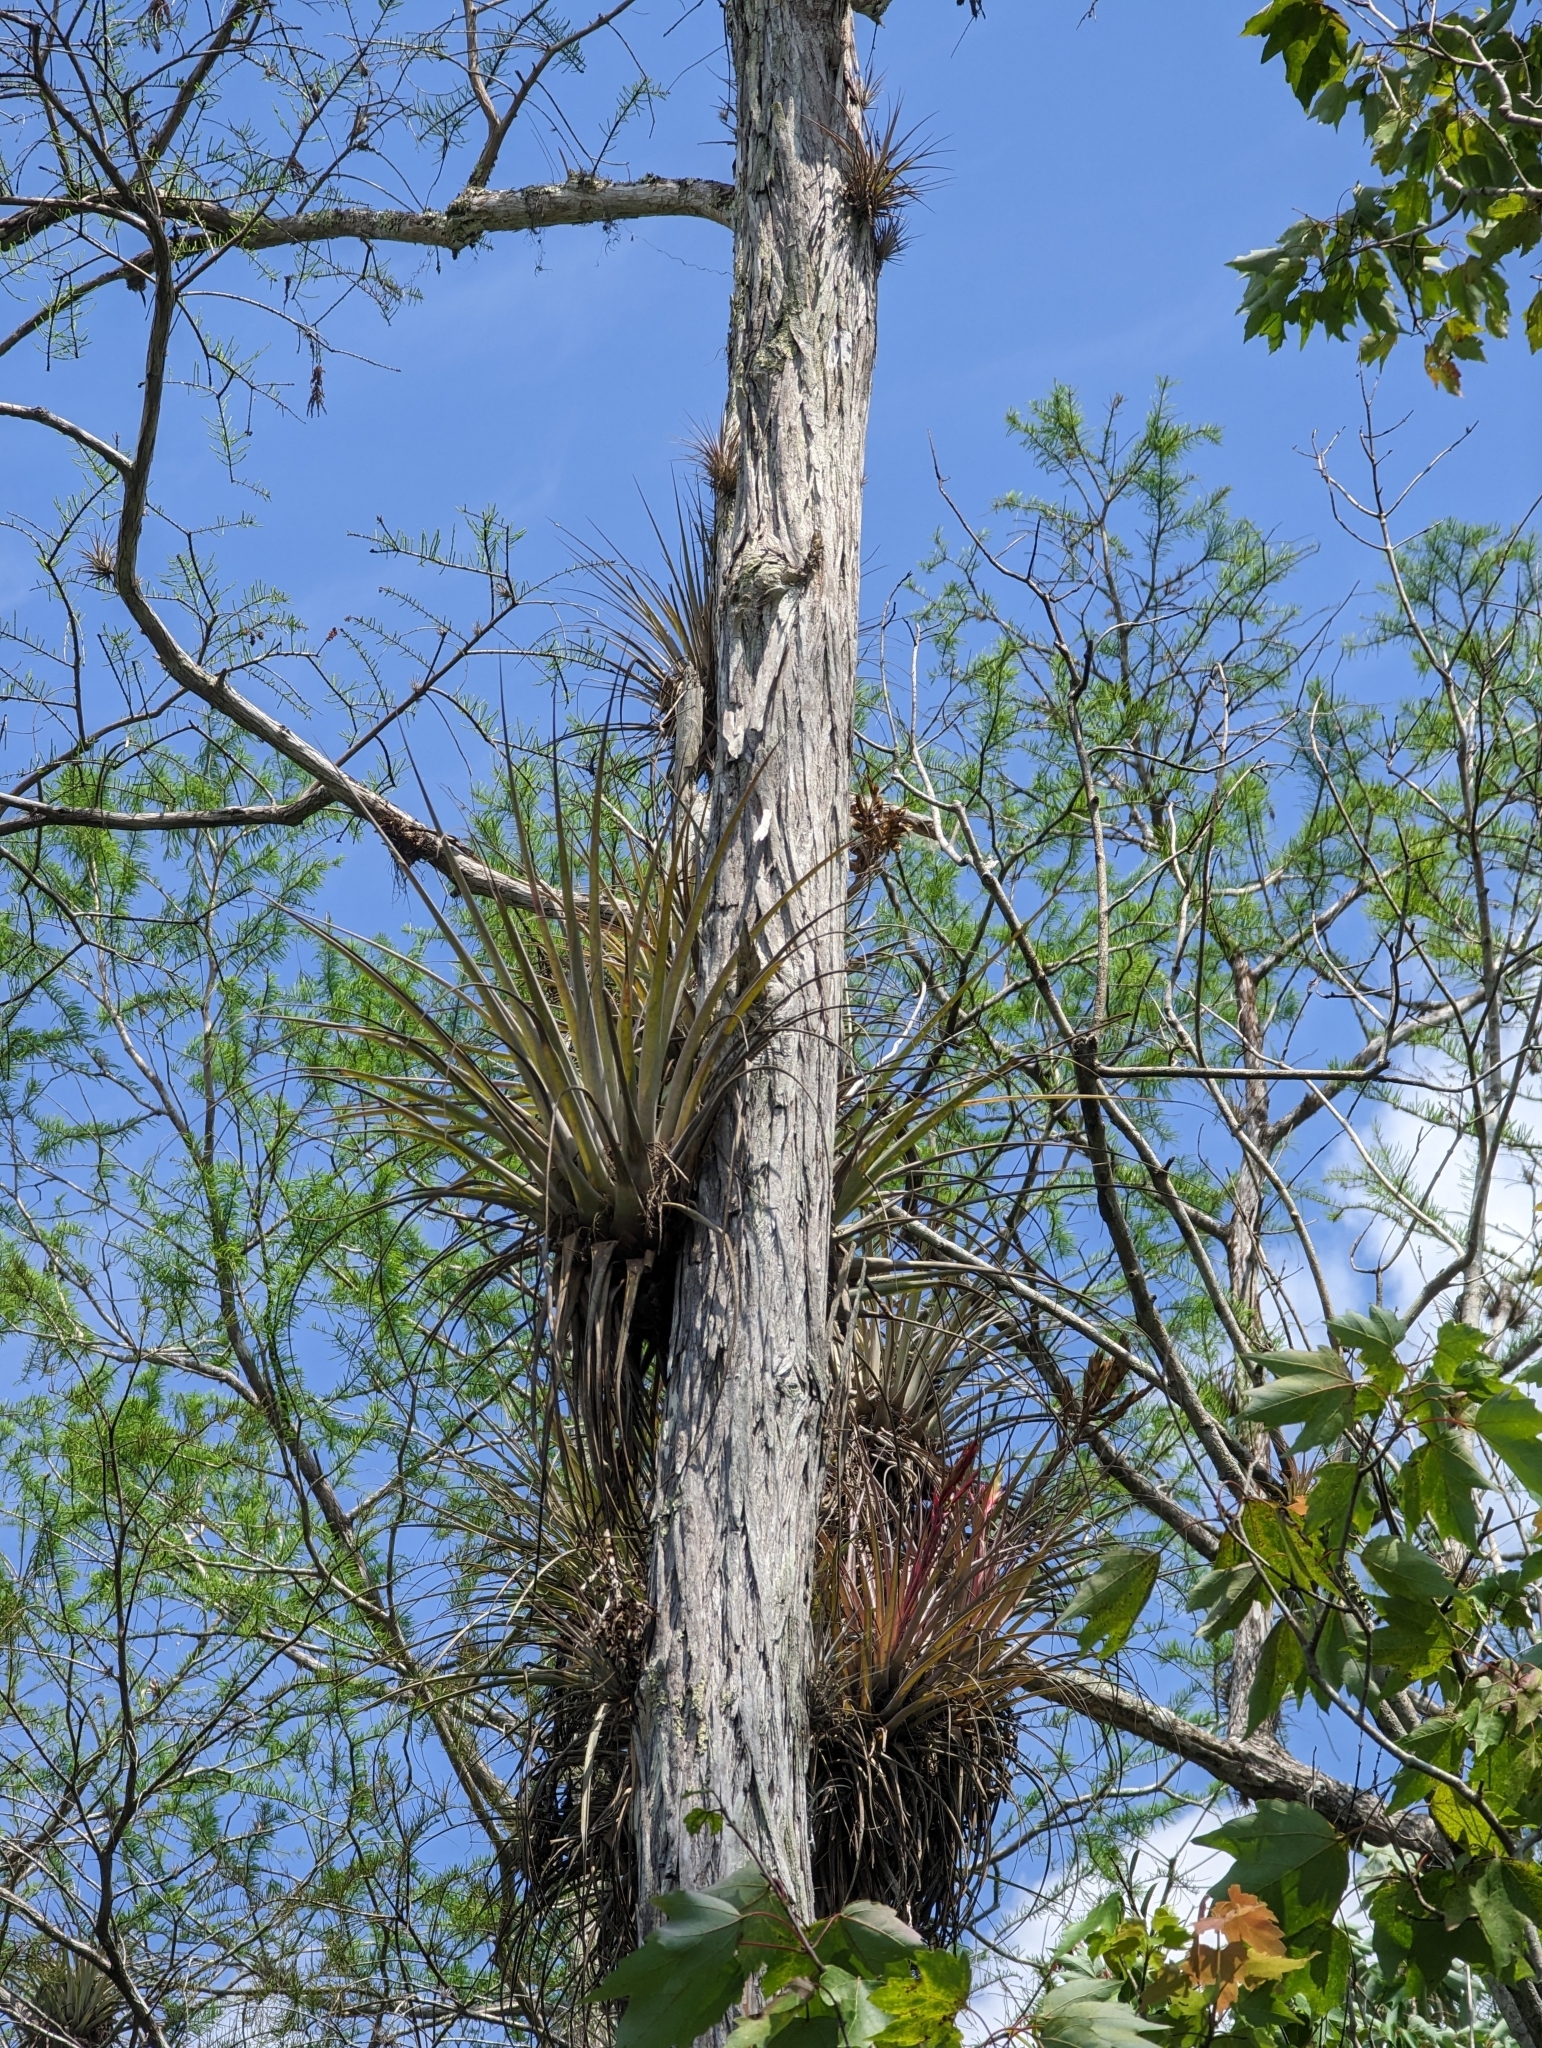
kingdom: Plantae
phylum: Tracheophyta
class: Liliopsida
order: Poales
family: Bromeliaceae
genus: Tillandsia
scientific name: Tillandsia fasciculata
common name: Giant airplant
